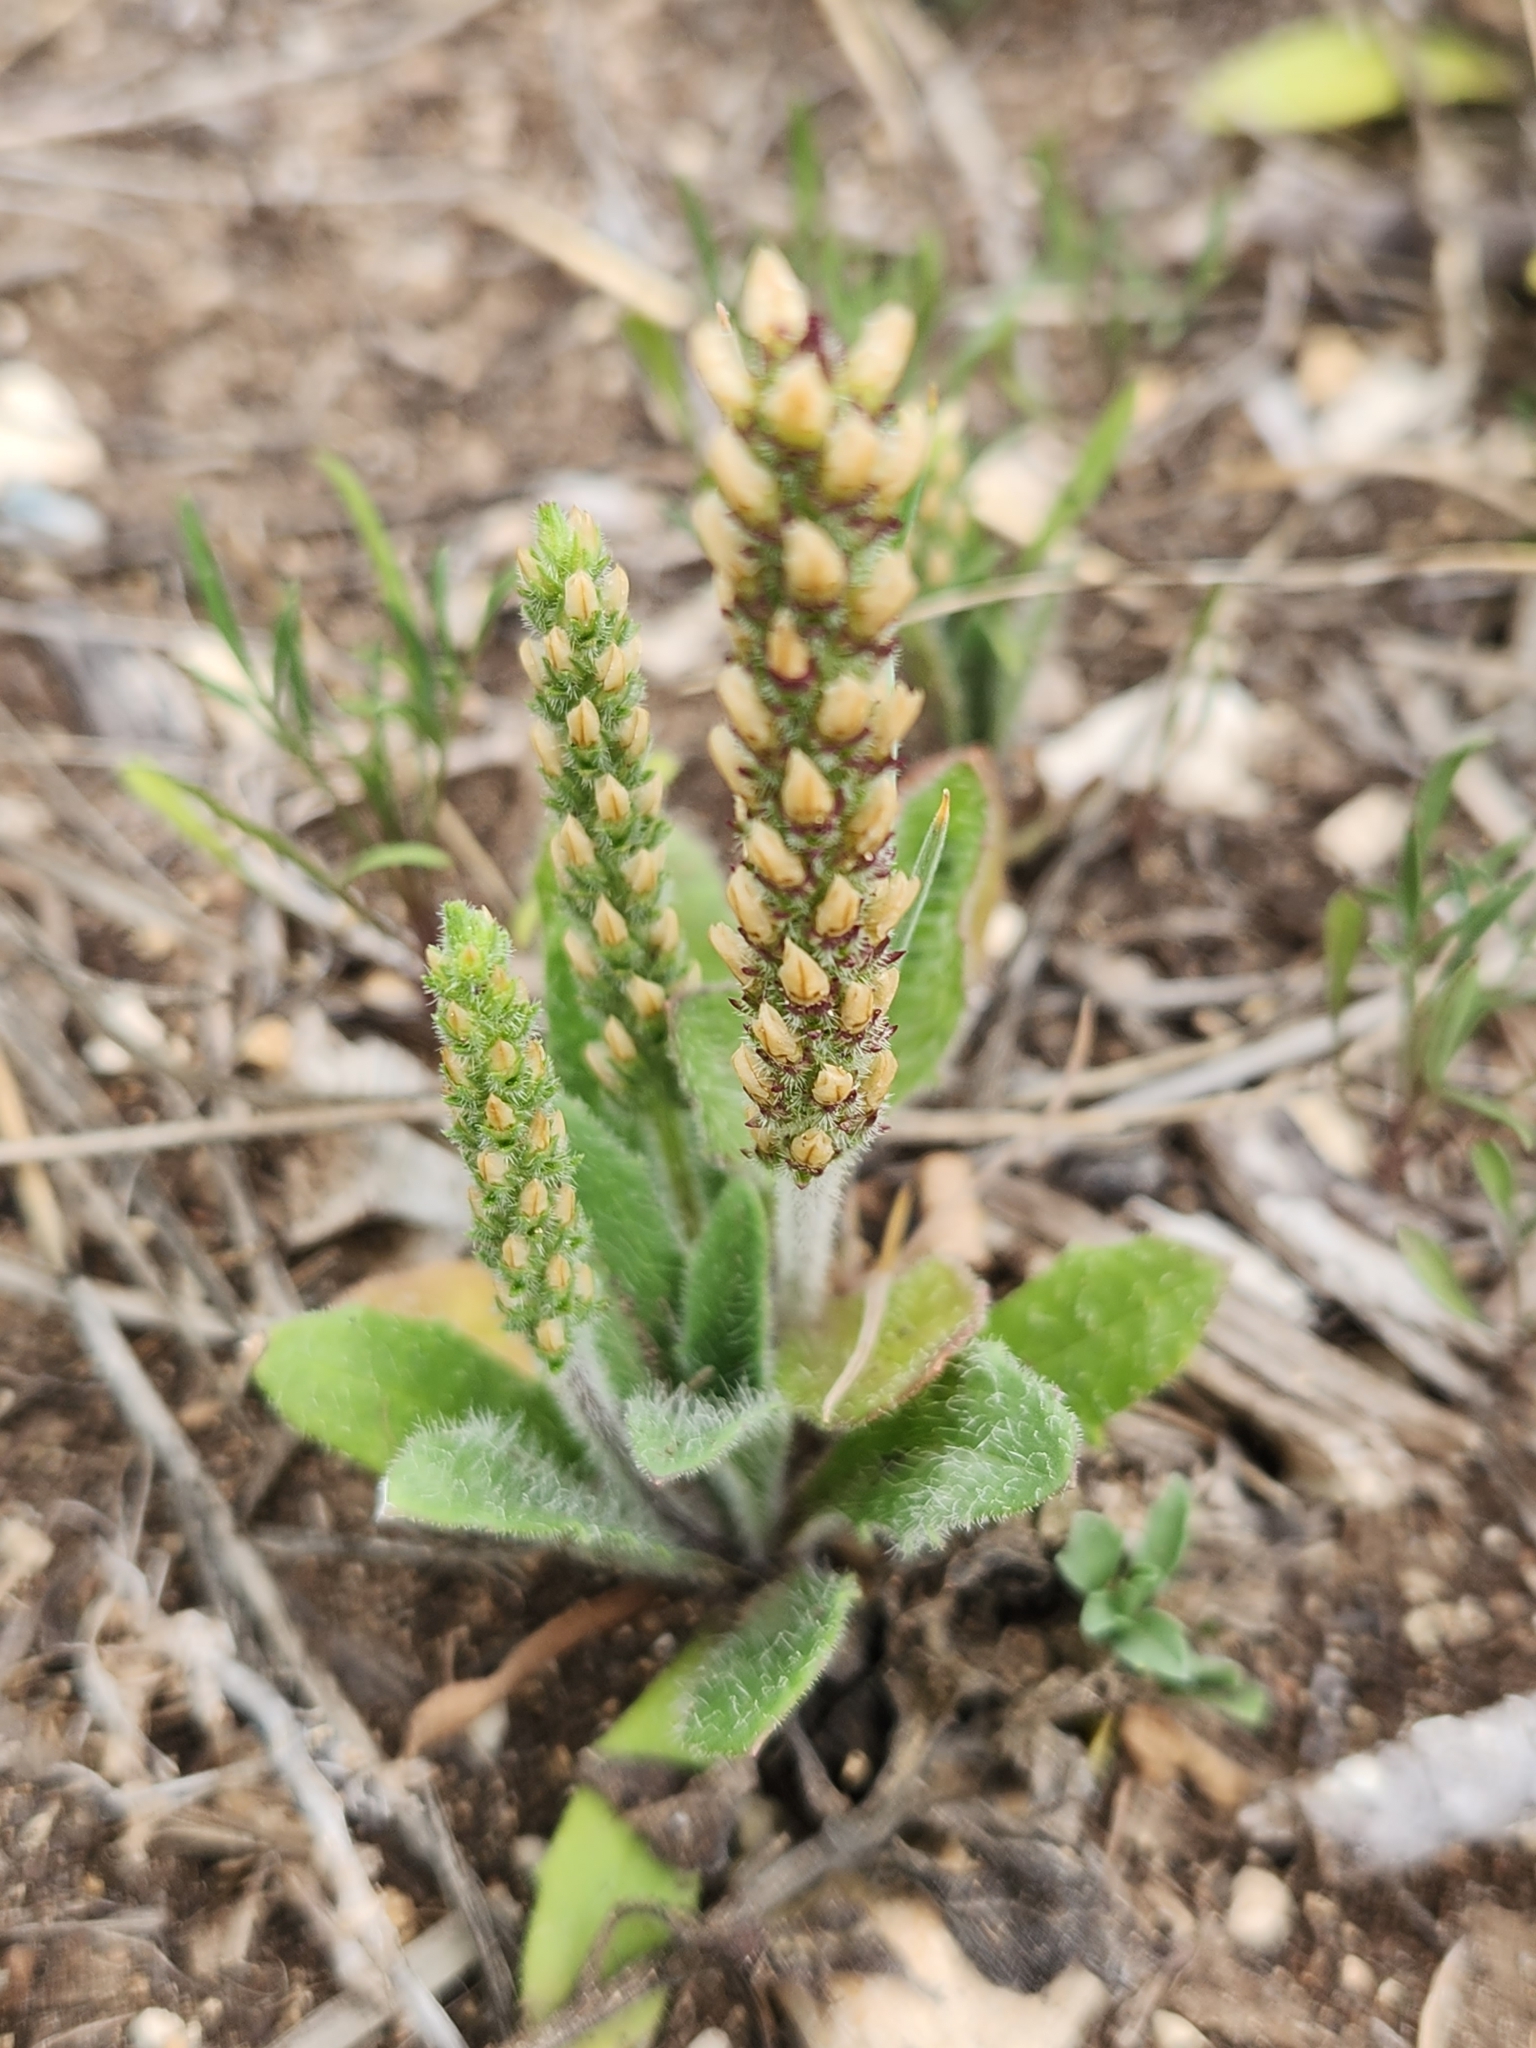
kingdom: Plantae
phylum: Tracheophyta
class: Magnoliopsida
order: Lamiales
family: Plantaginaceae
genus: Plantago
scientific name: Plantago rhodosperma
